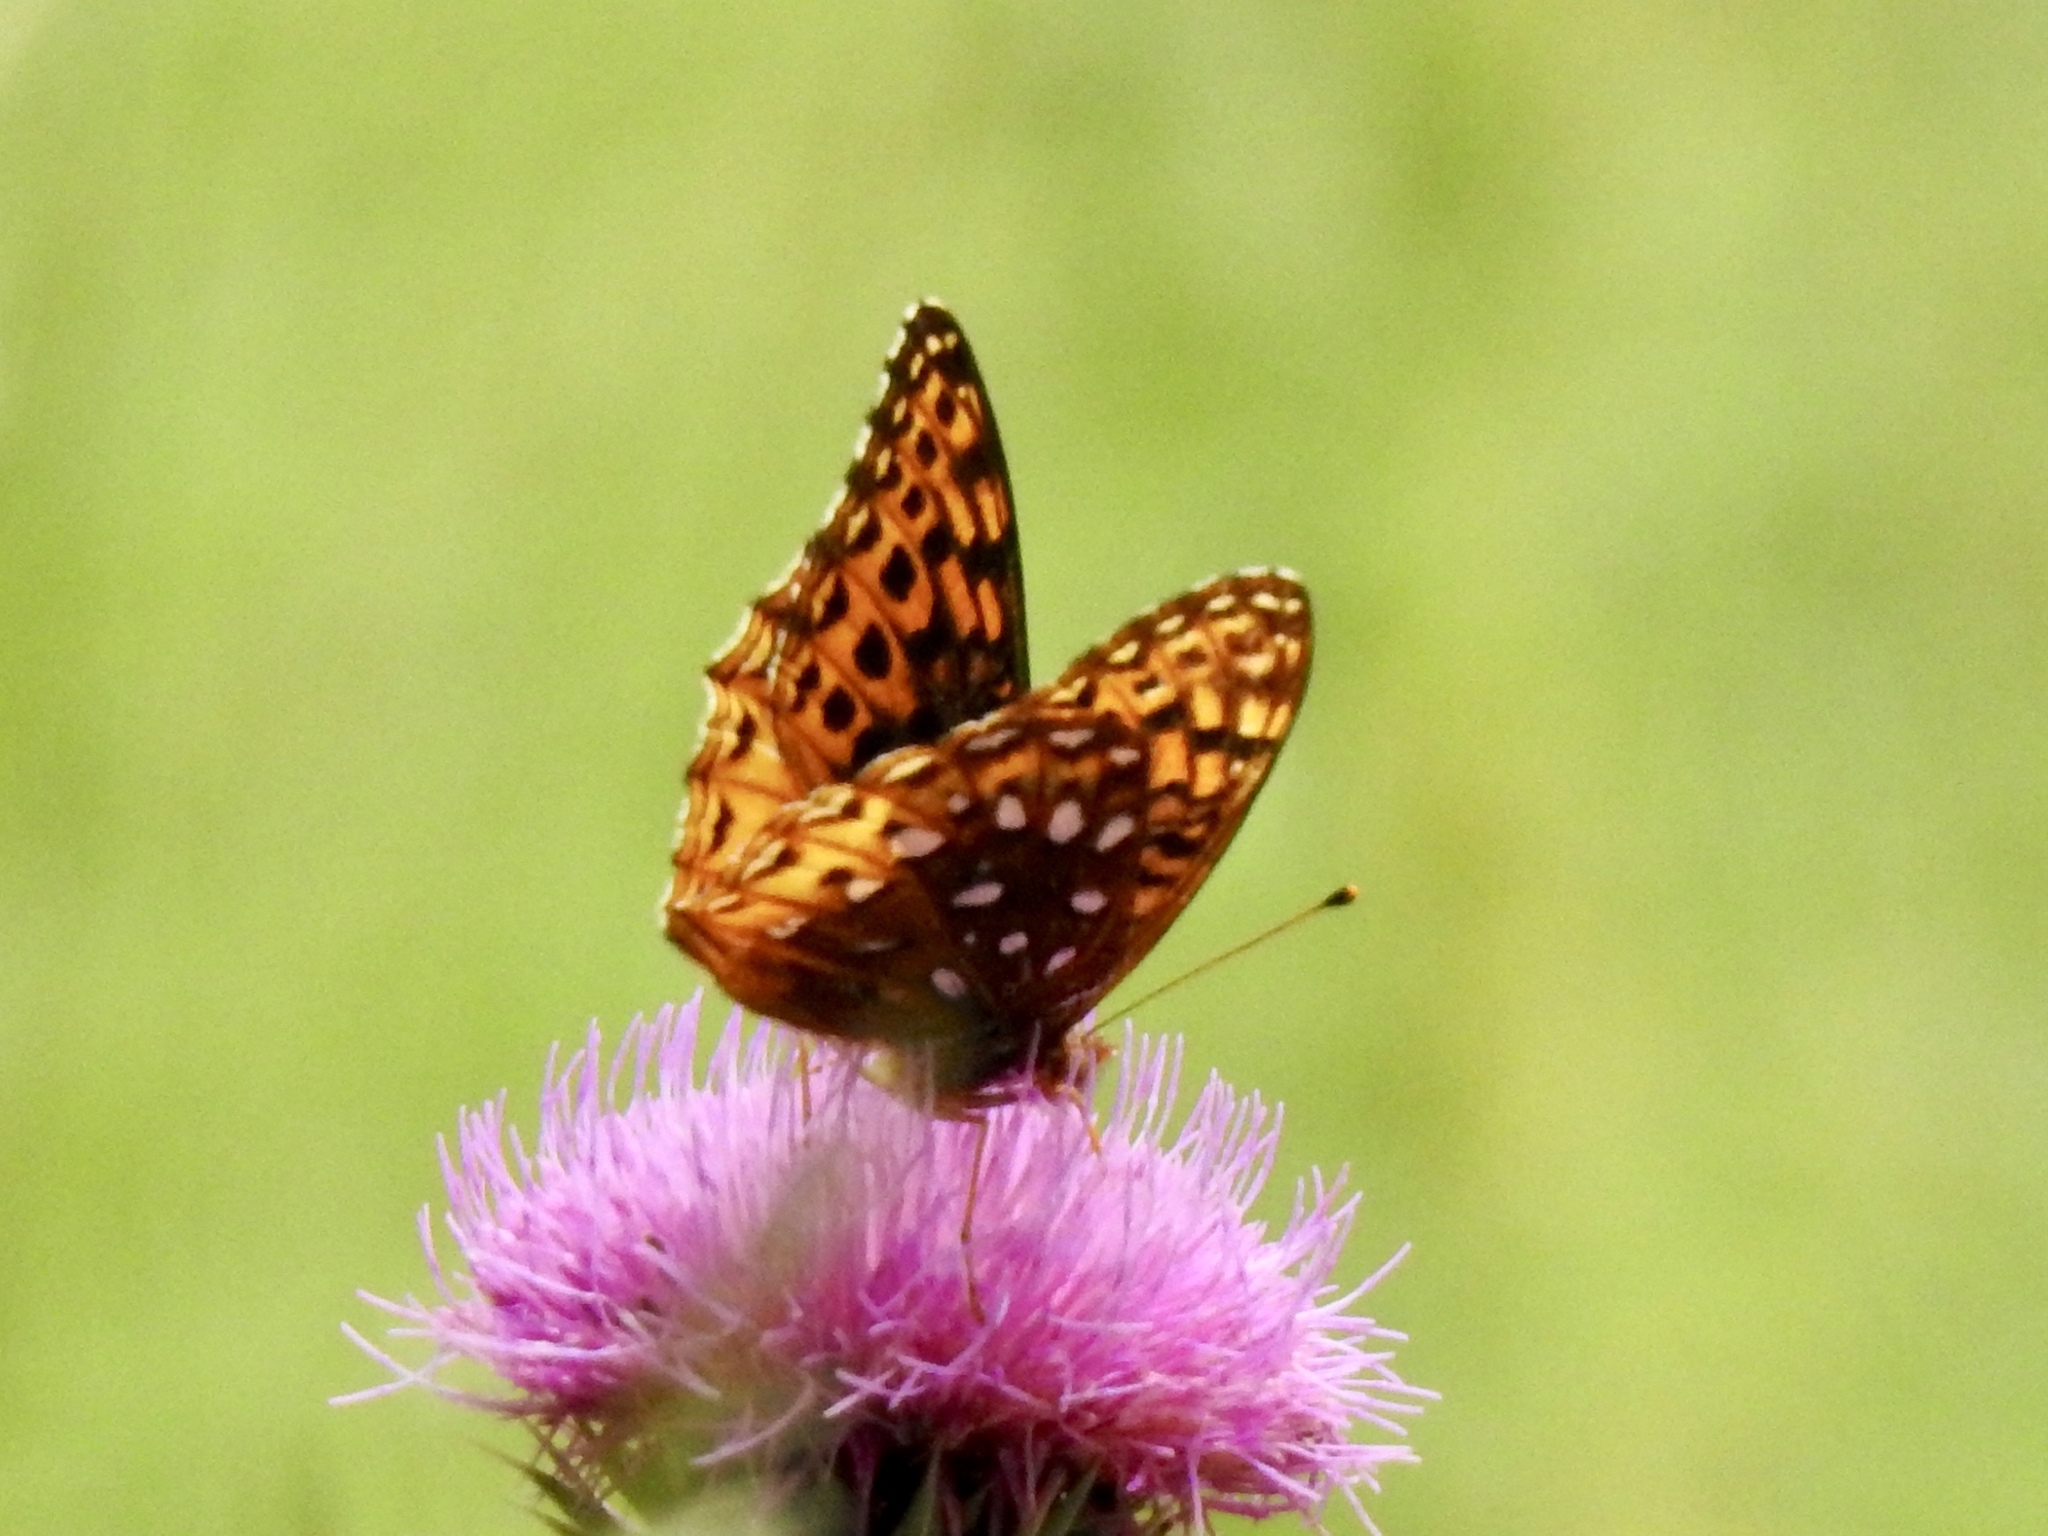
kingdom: Animalia
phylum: Arthropoda
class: Insecta
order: Lepidoptera
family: Nymphalidae
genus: Speyeria
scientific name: Speyeria atlantis
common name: Atlantis fritillary
